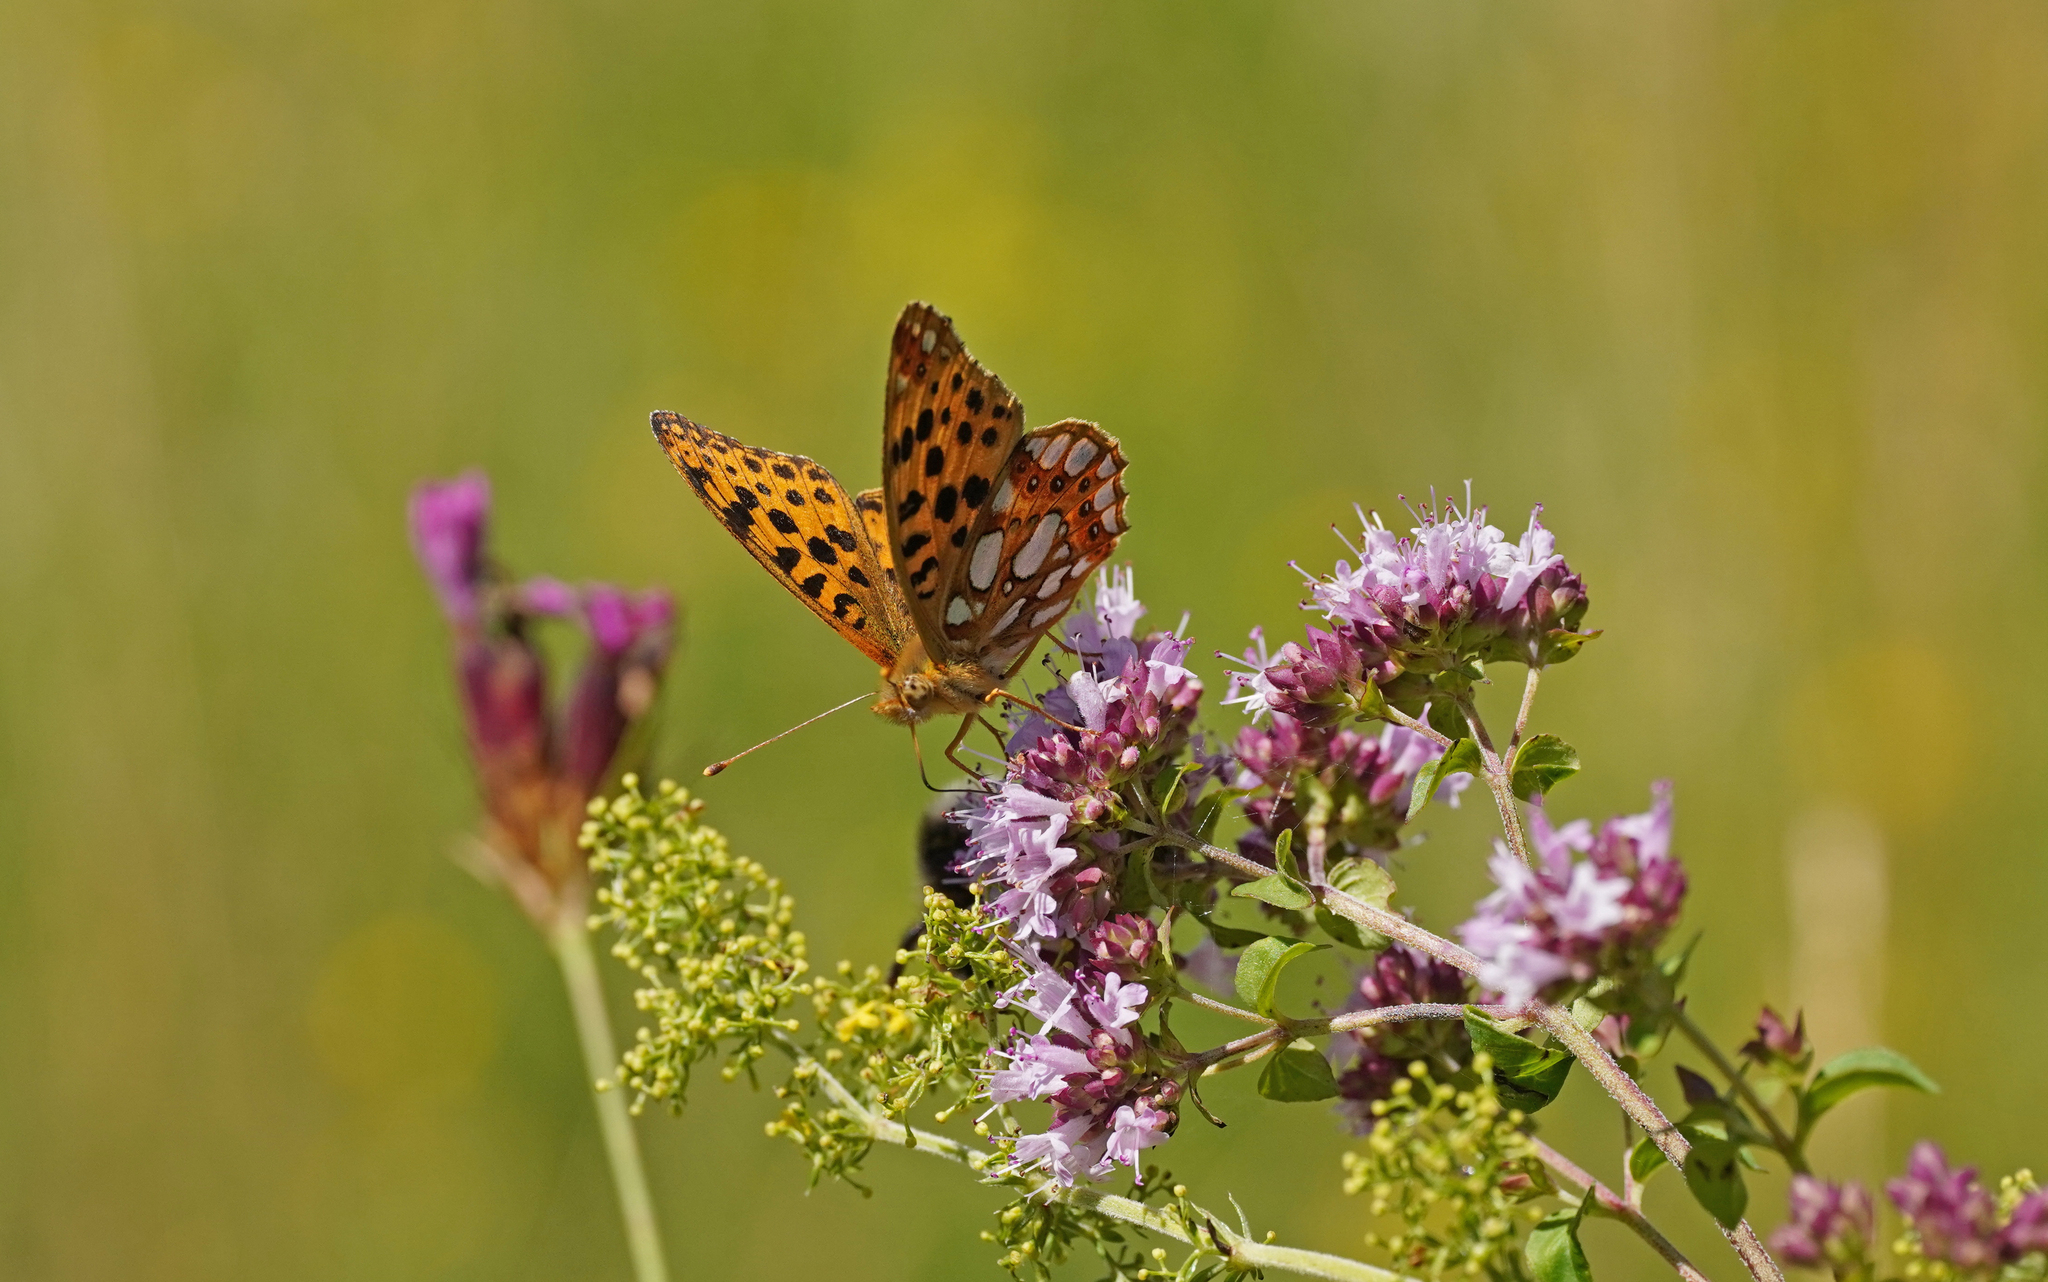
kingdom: Animalia
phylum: Arthropoda
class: Insecta
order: Lepidoptera
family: Nymphalidae
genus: Issoria
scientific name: Issoria lathonia
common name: Queen of spain fritillary
